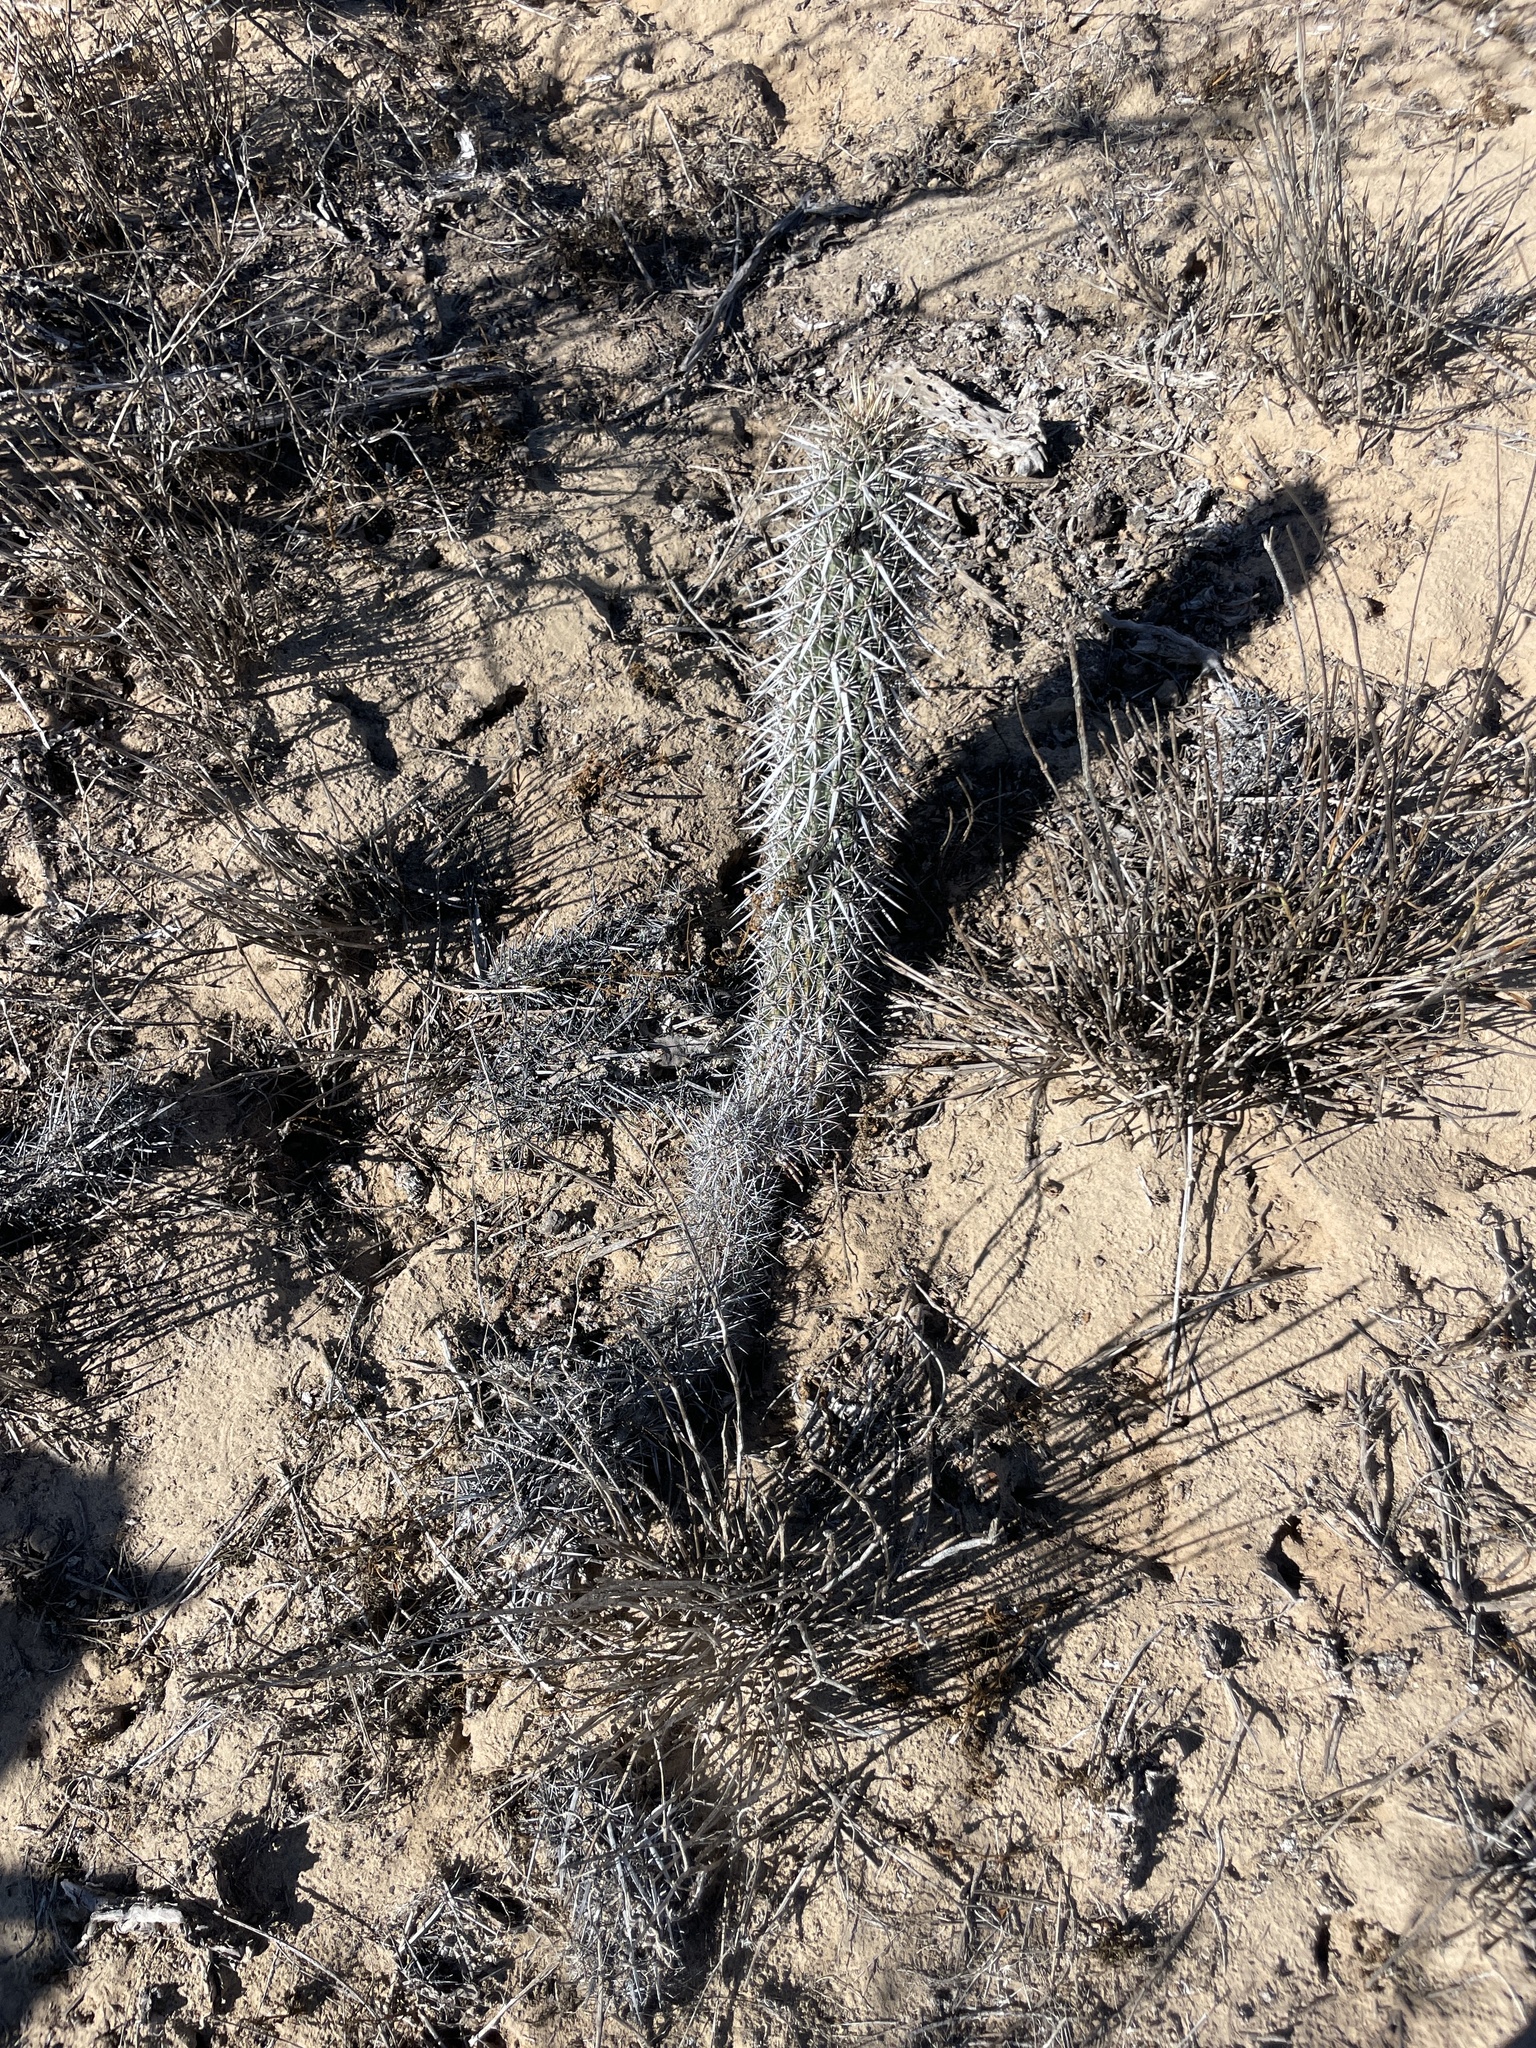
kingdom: Plantae
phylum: Tracheophyta
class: Magnoliopsida
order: Caryophyllales
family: Cactaceae
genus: Stenocereus
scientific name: Stenocereus eruca
